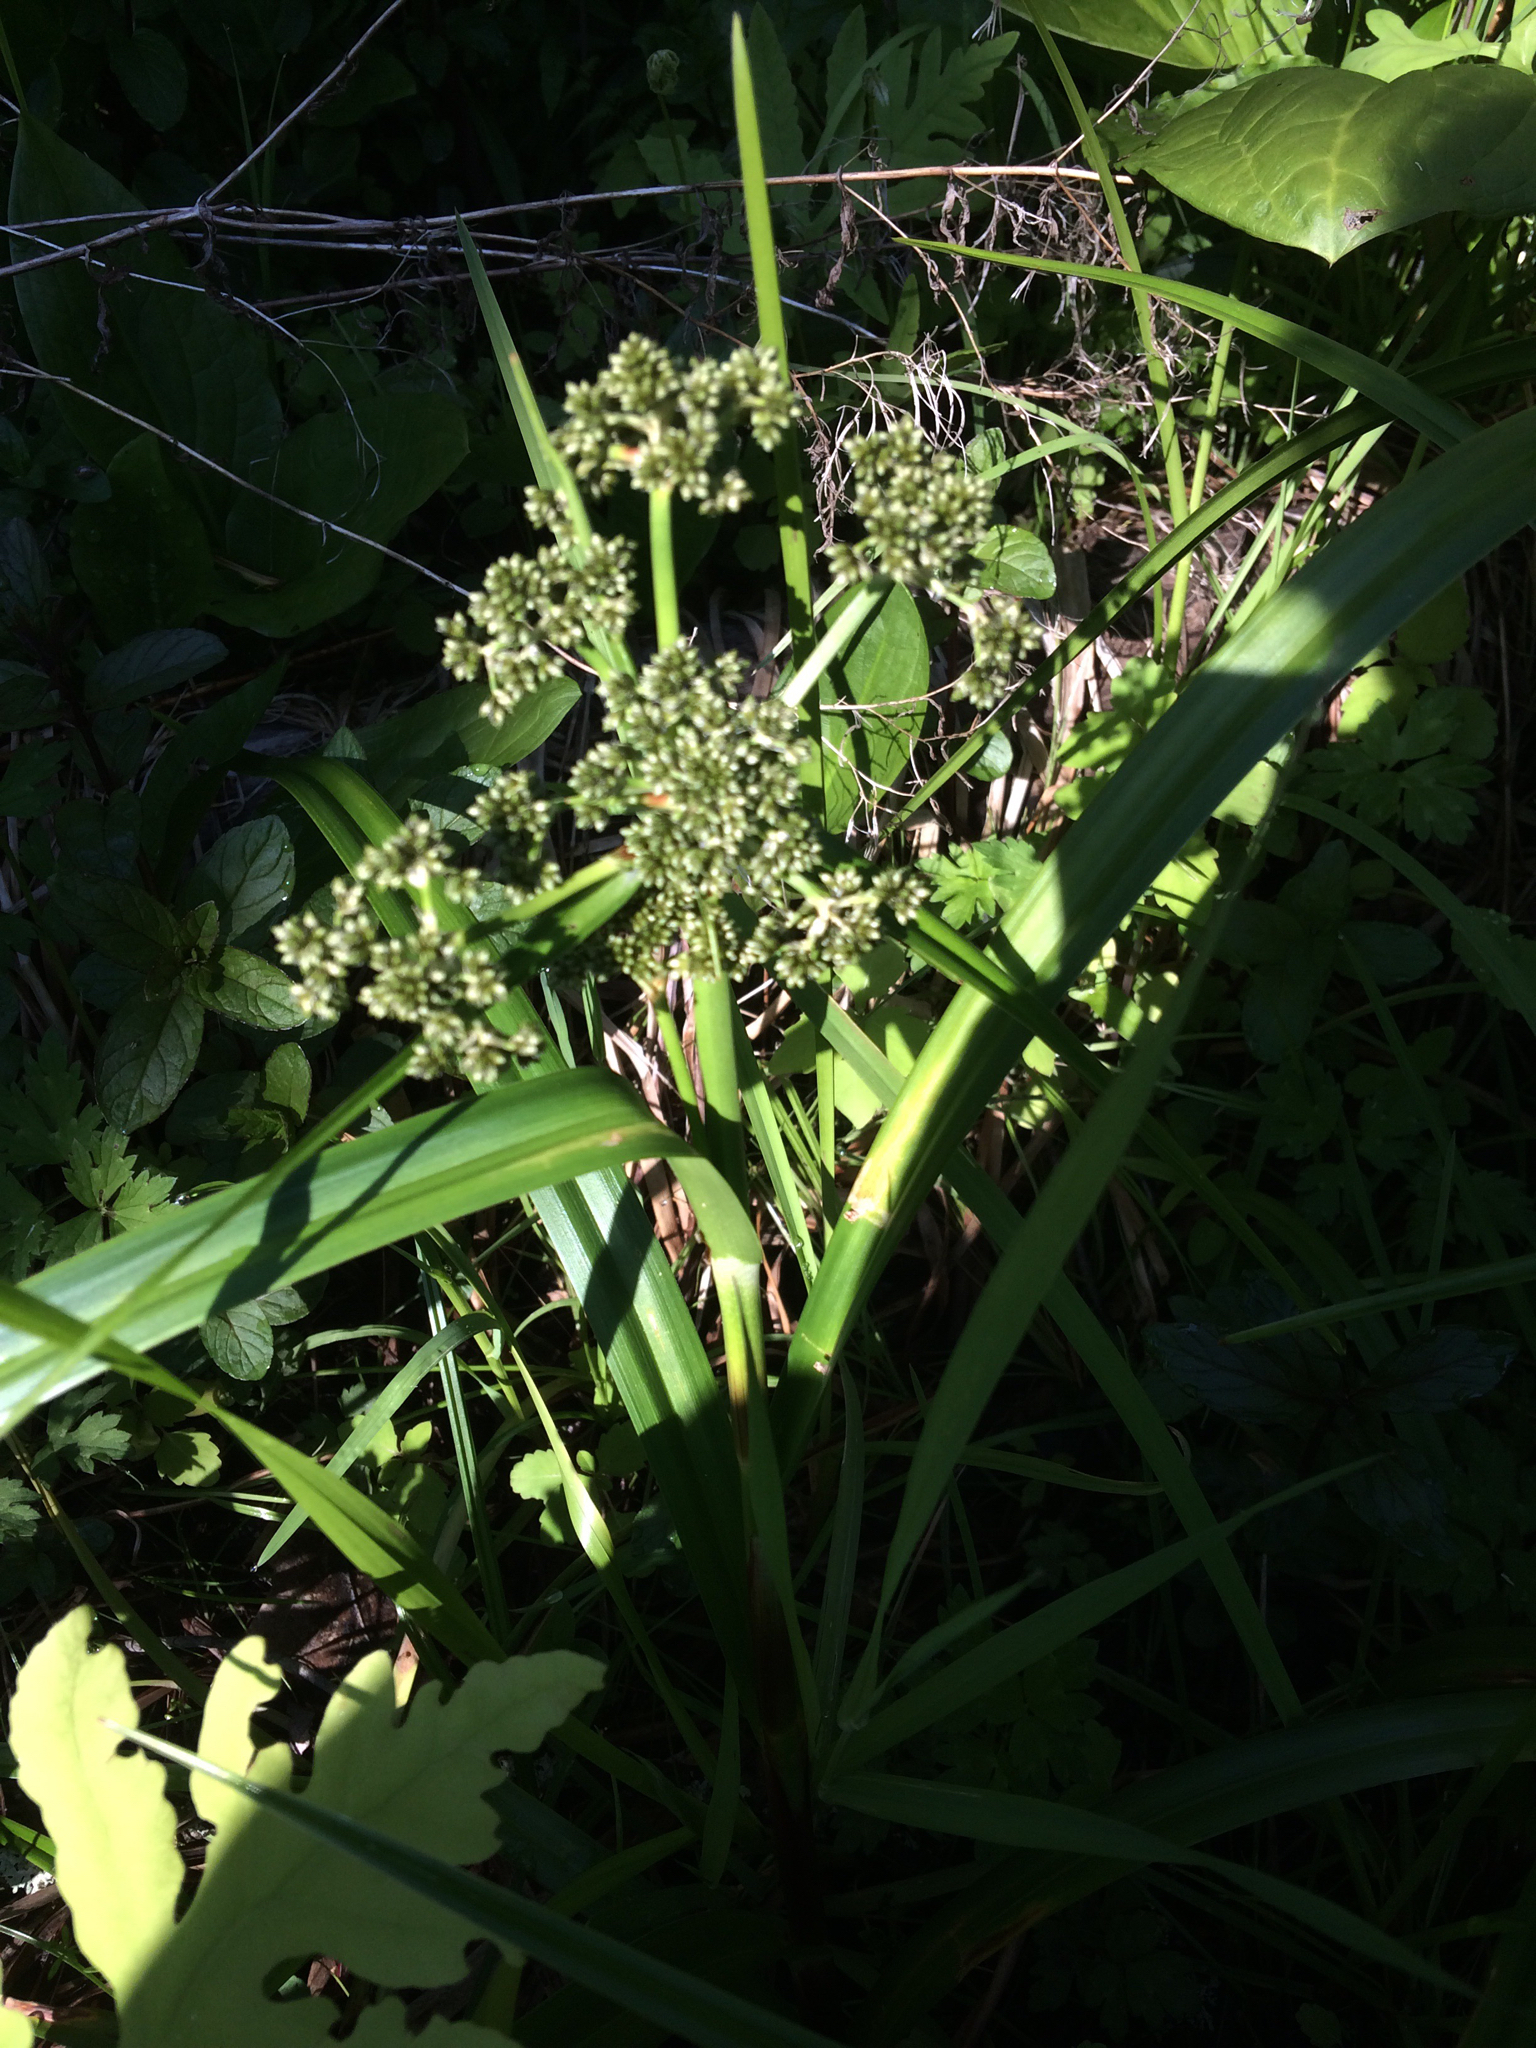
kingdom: Plantae
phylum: Tracheophyta
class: Liliopsida
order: Poales
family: Cyperaceae
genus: Scirpus
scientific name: Scirpus microcarpus
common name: Panicled bulrush
